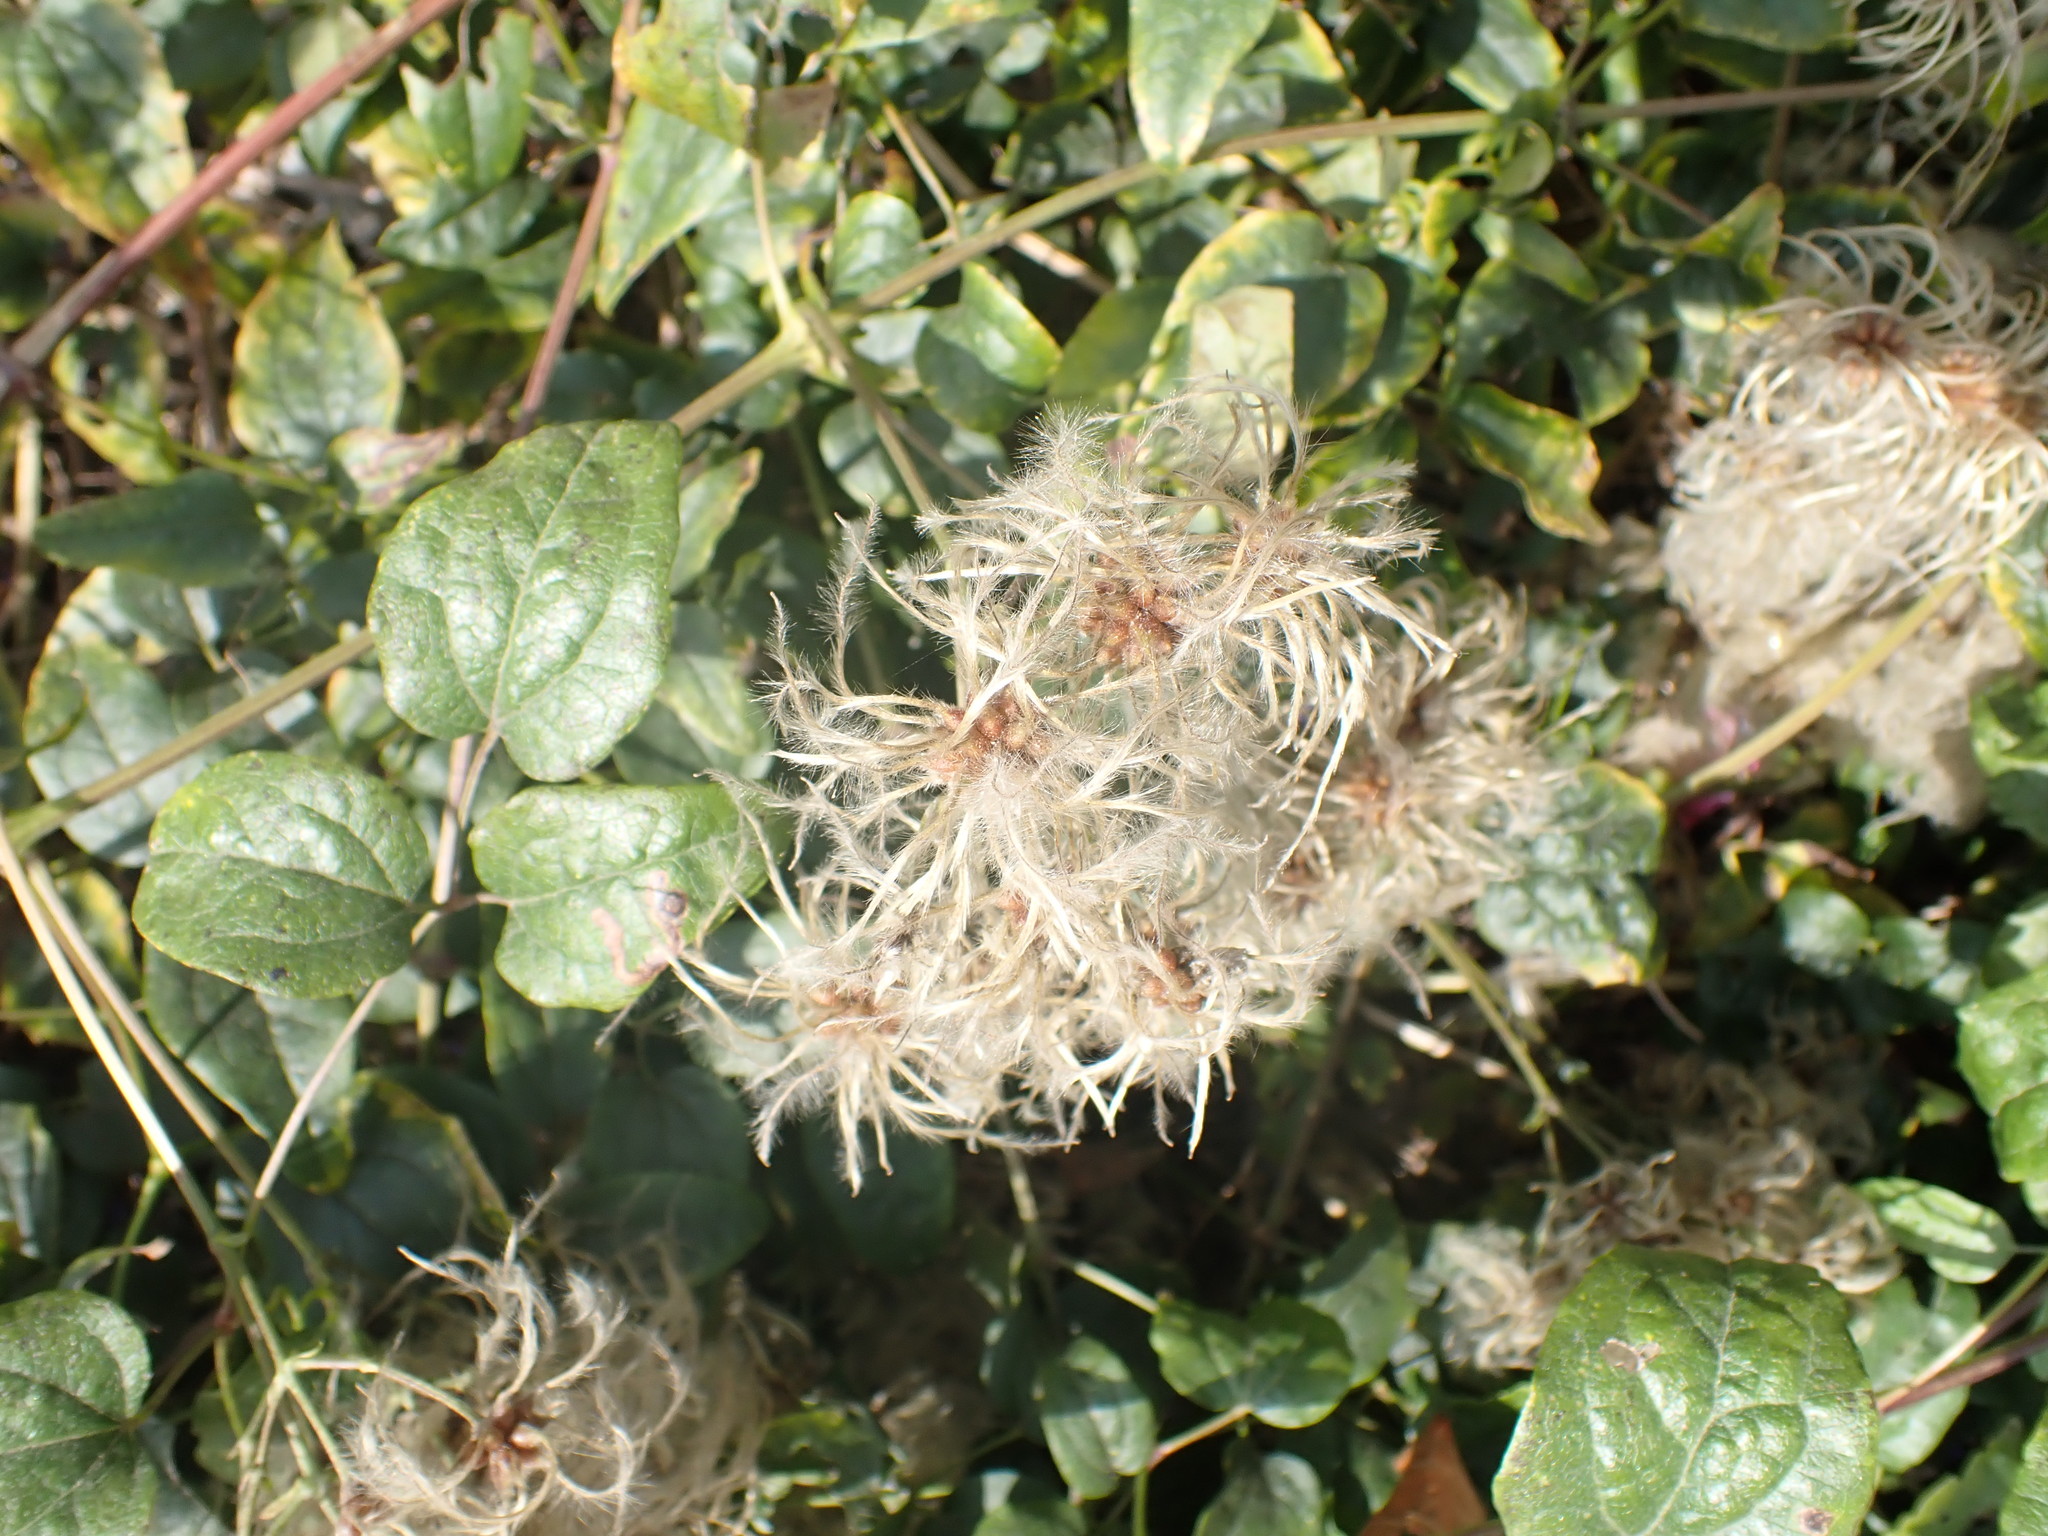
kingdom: Plantae
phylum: Tracheophyta
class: Magnoliopsida
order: Ranunculales
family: Ranunculaceae
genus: Clematis
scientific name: Clematis vitalba
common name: Evergreen clematis
